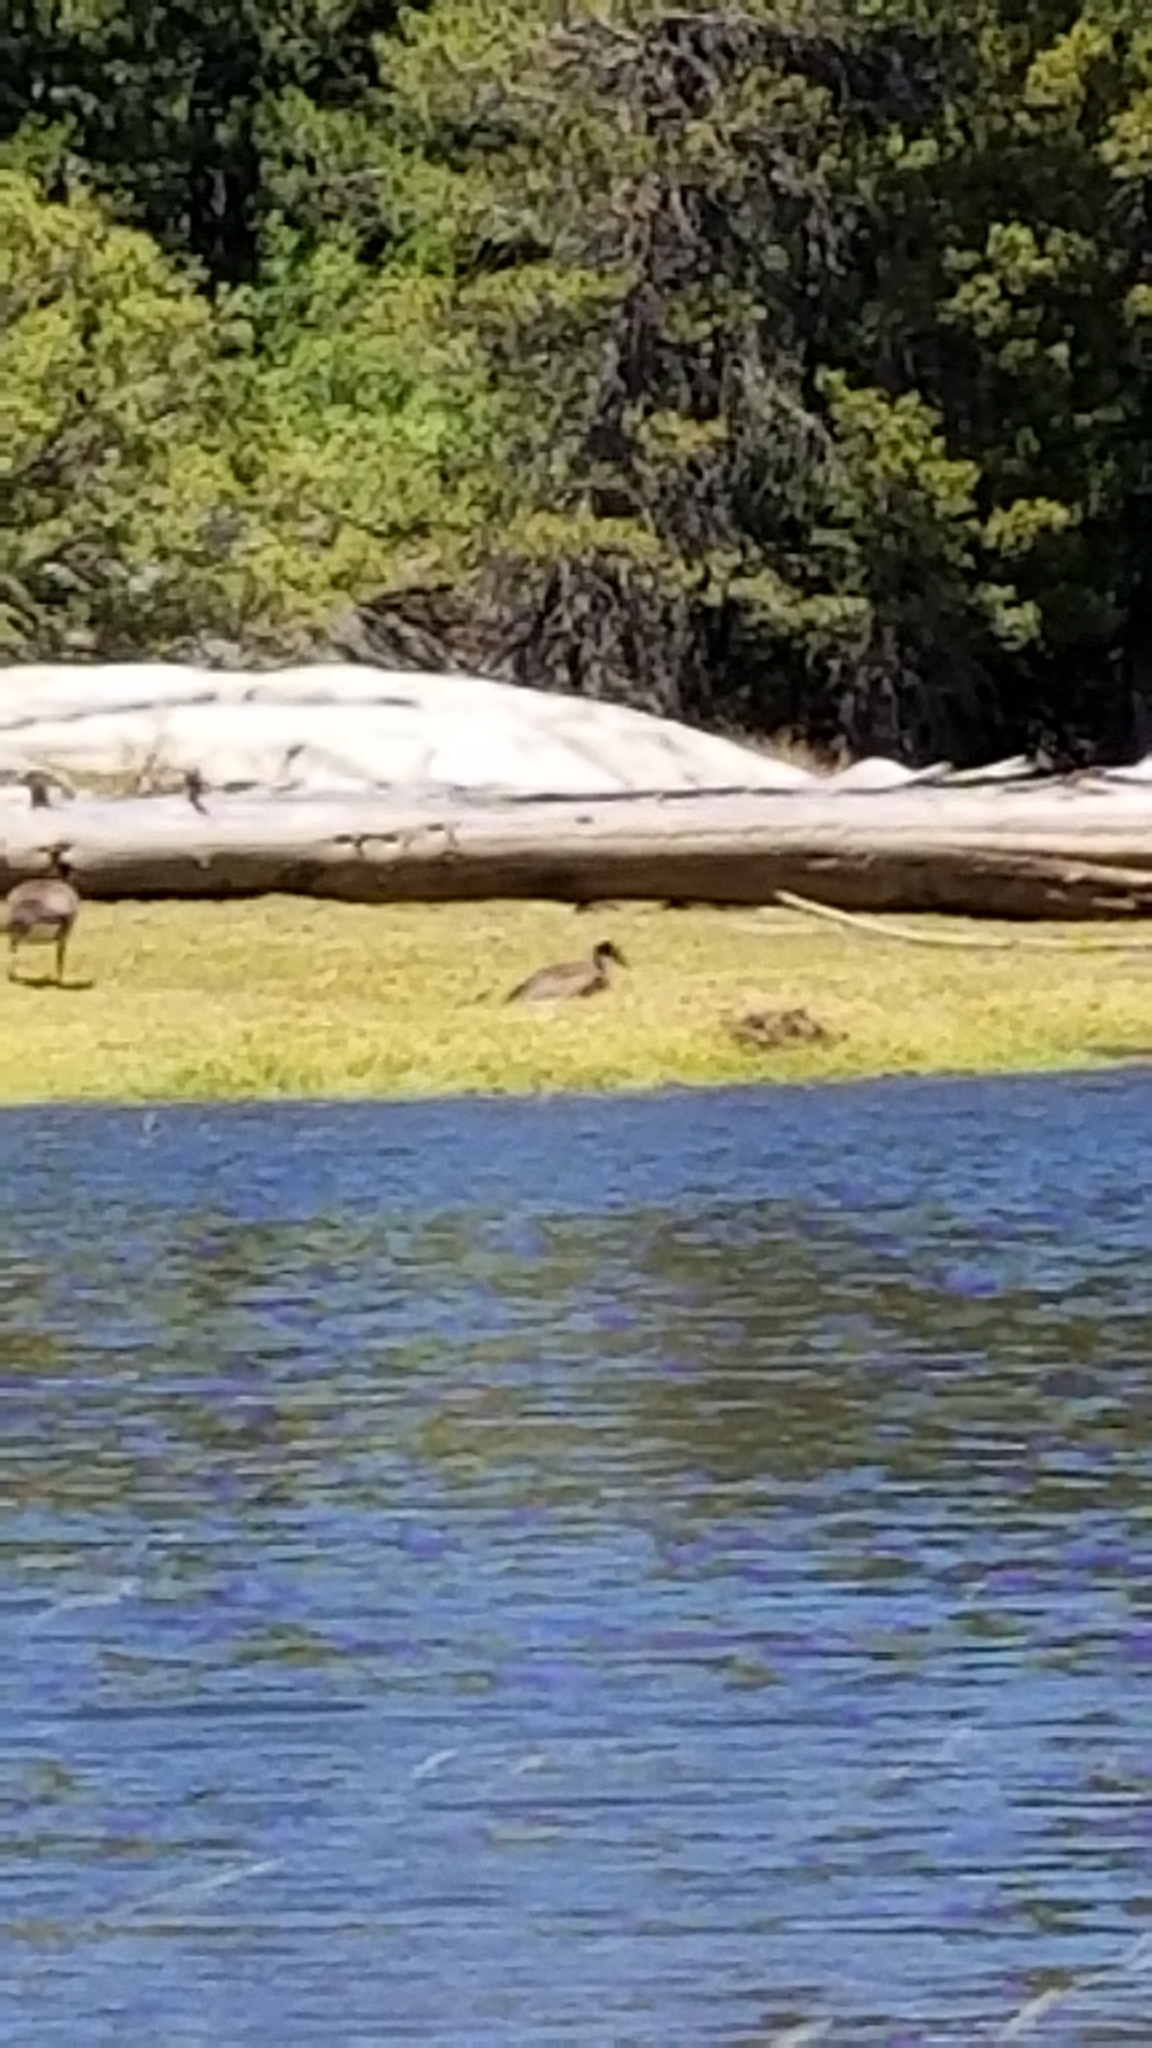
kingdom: Animalia
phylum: Chordata
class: Aves
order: Anseriformes
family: Anatidae
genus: Branta
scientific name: Branta canadensis
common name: Canada goose
